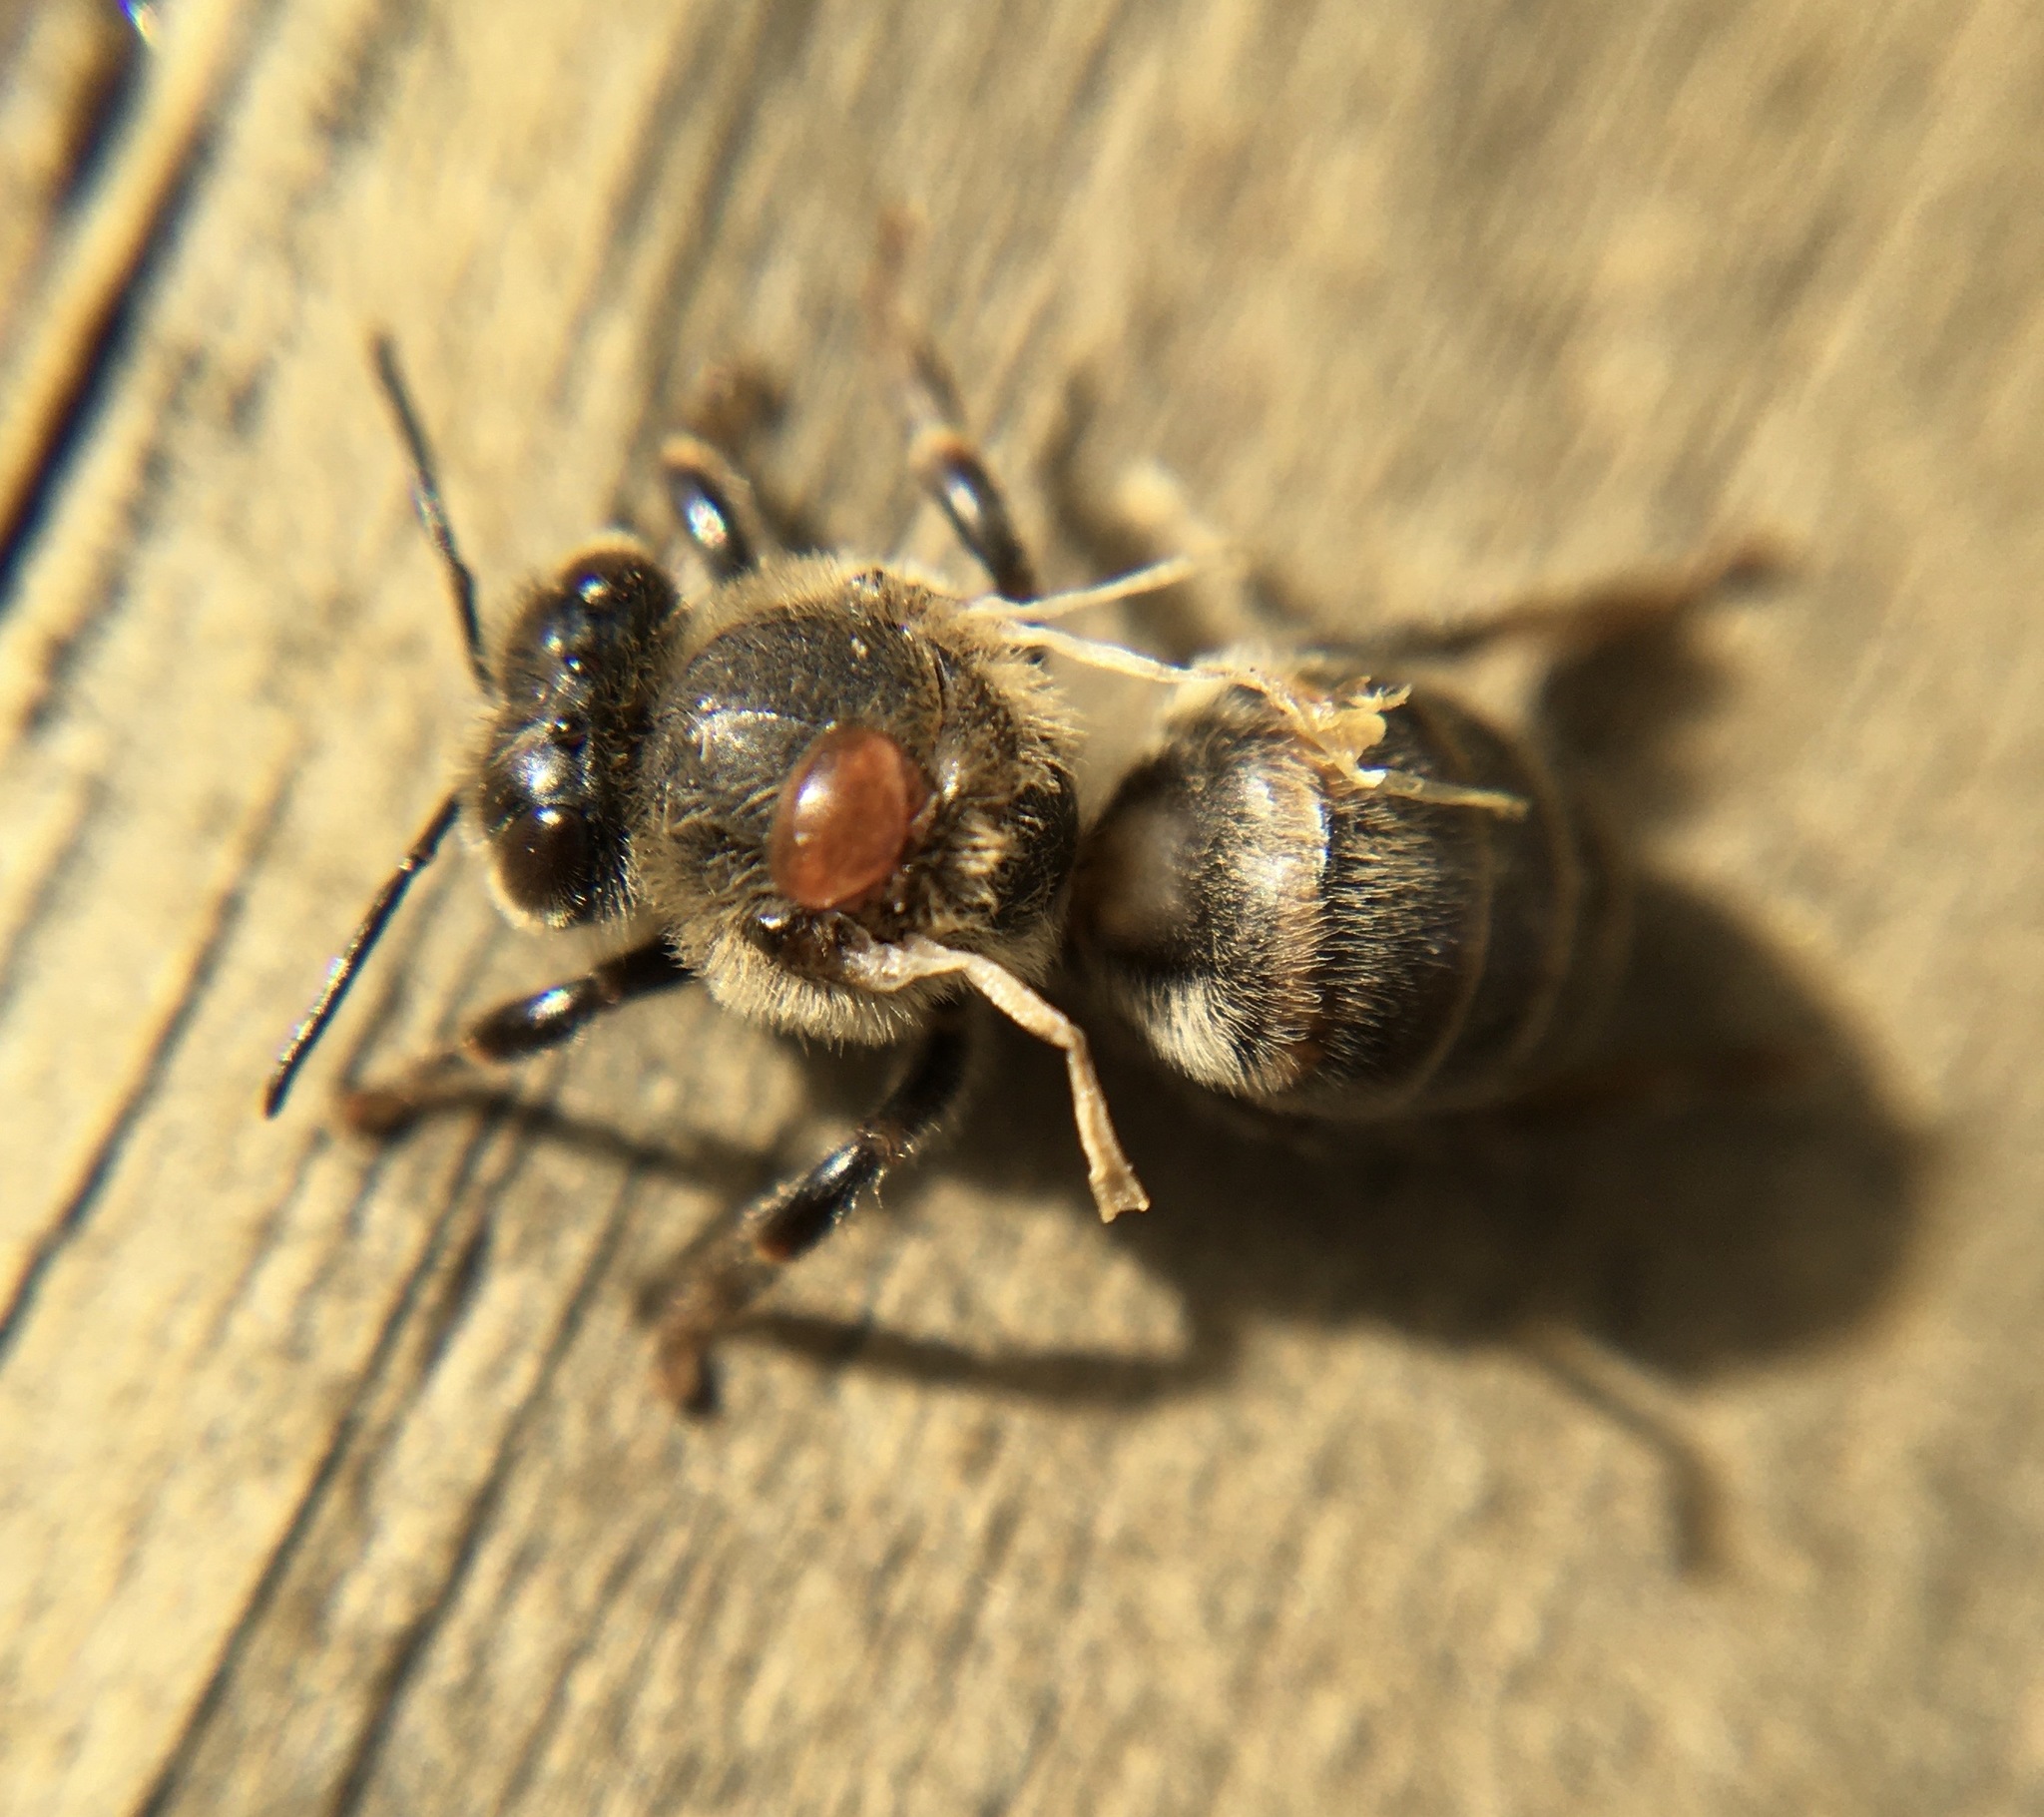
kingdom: Animalia
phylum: Arthropoda
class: Insecta
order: Hymenoptera
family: Apidae
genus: Apis
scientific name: Apis mellifera
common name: Honey bee
